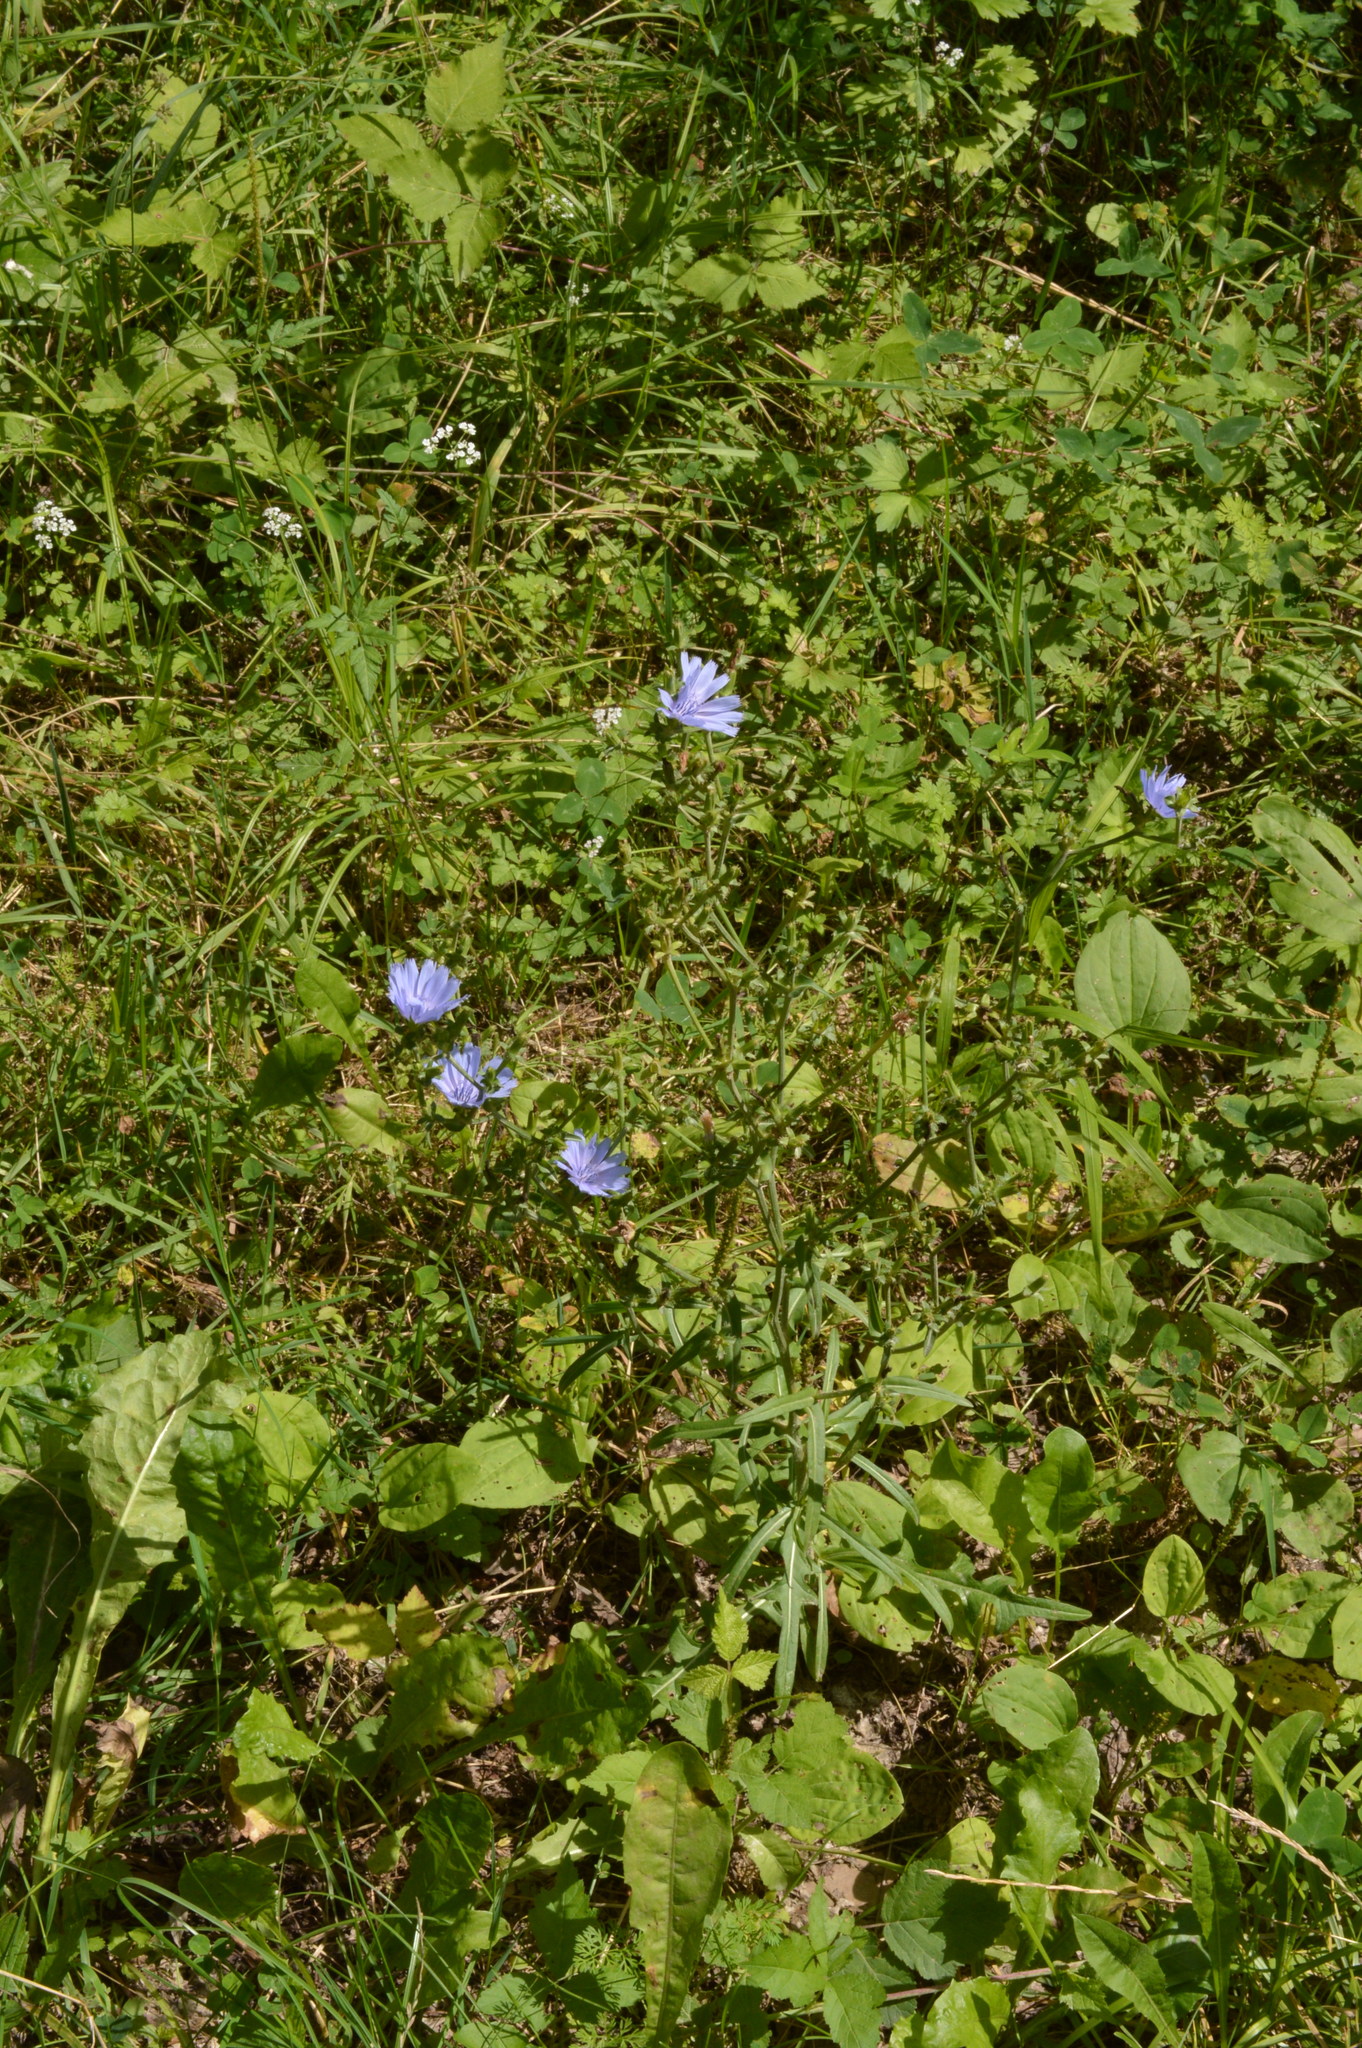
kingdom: Plantae
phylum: Tracheophyta
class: Magnoliopsida
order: Asterales
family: Asteraceae
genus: Cichorium
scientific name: Cichorium intybus
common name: Chicory
